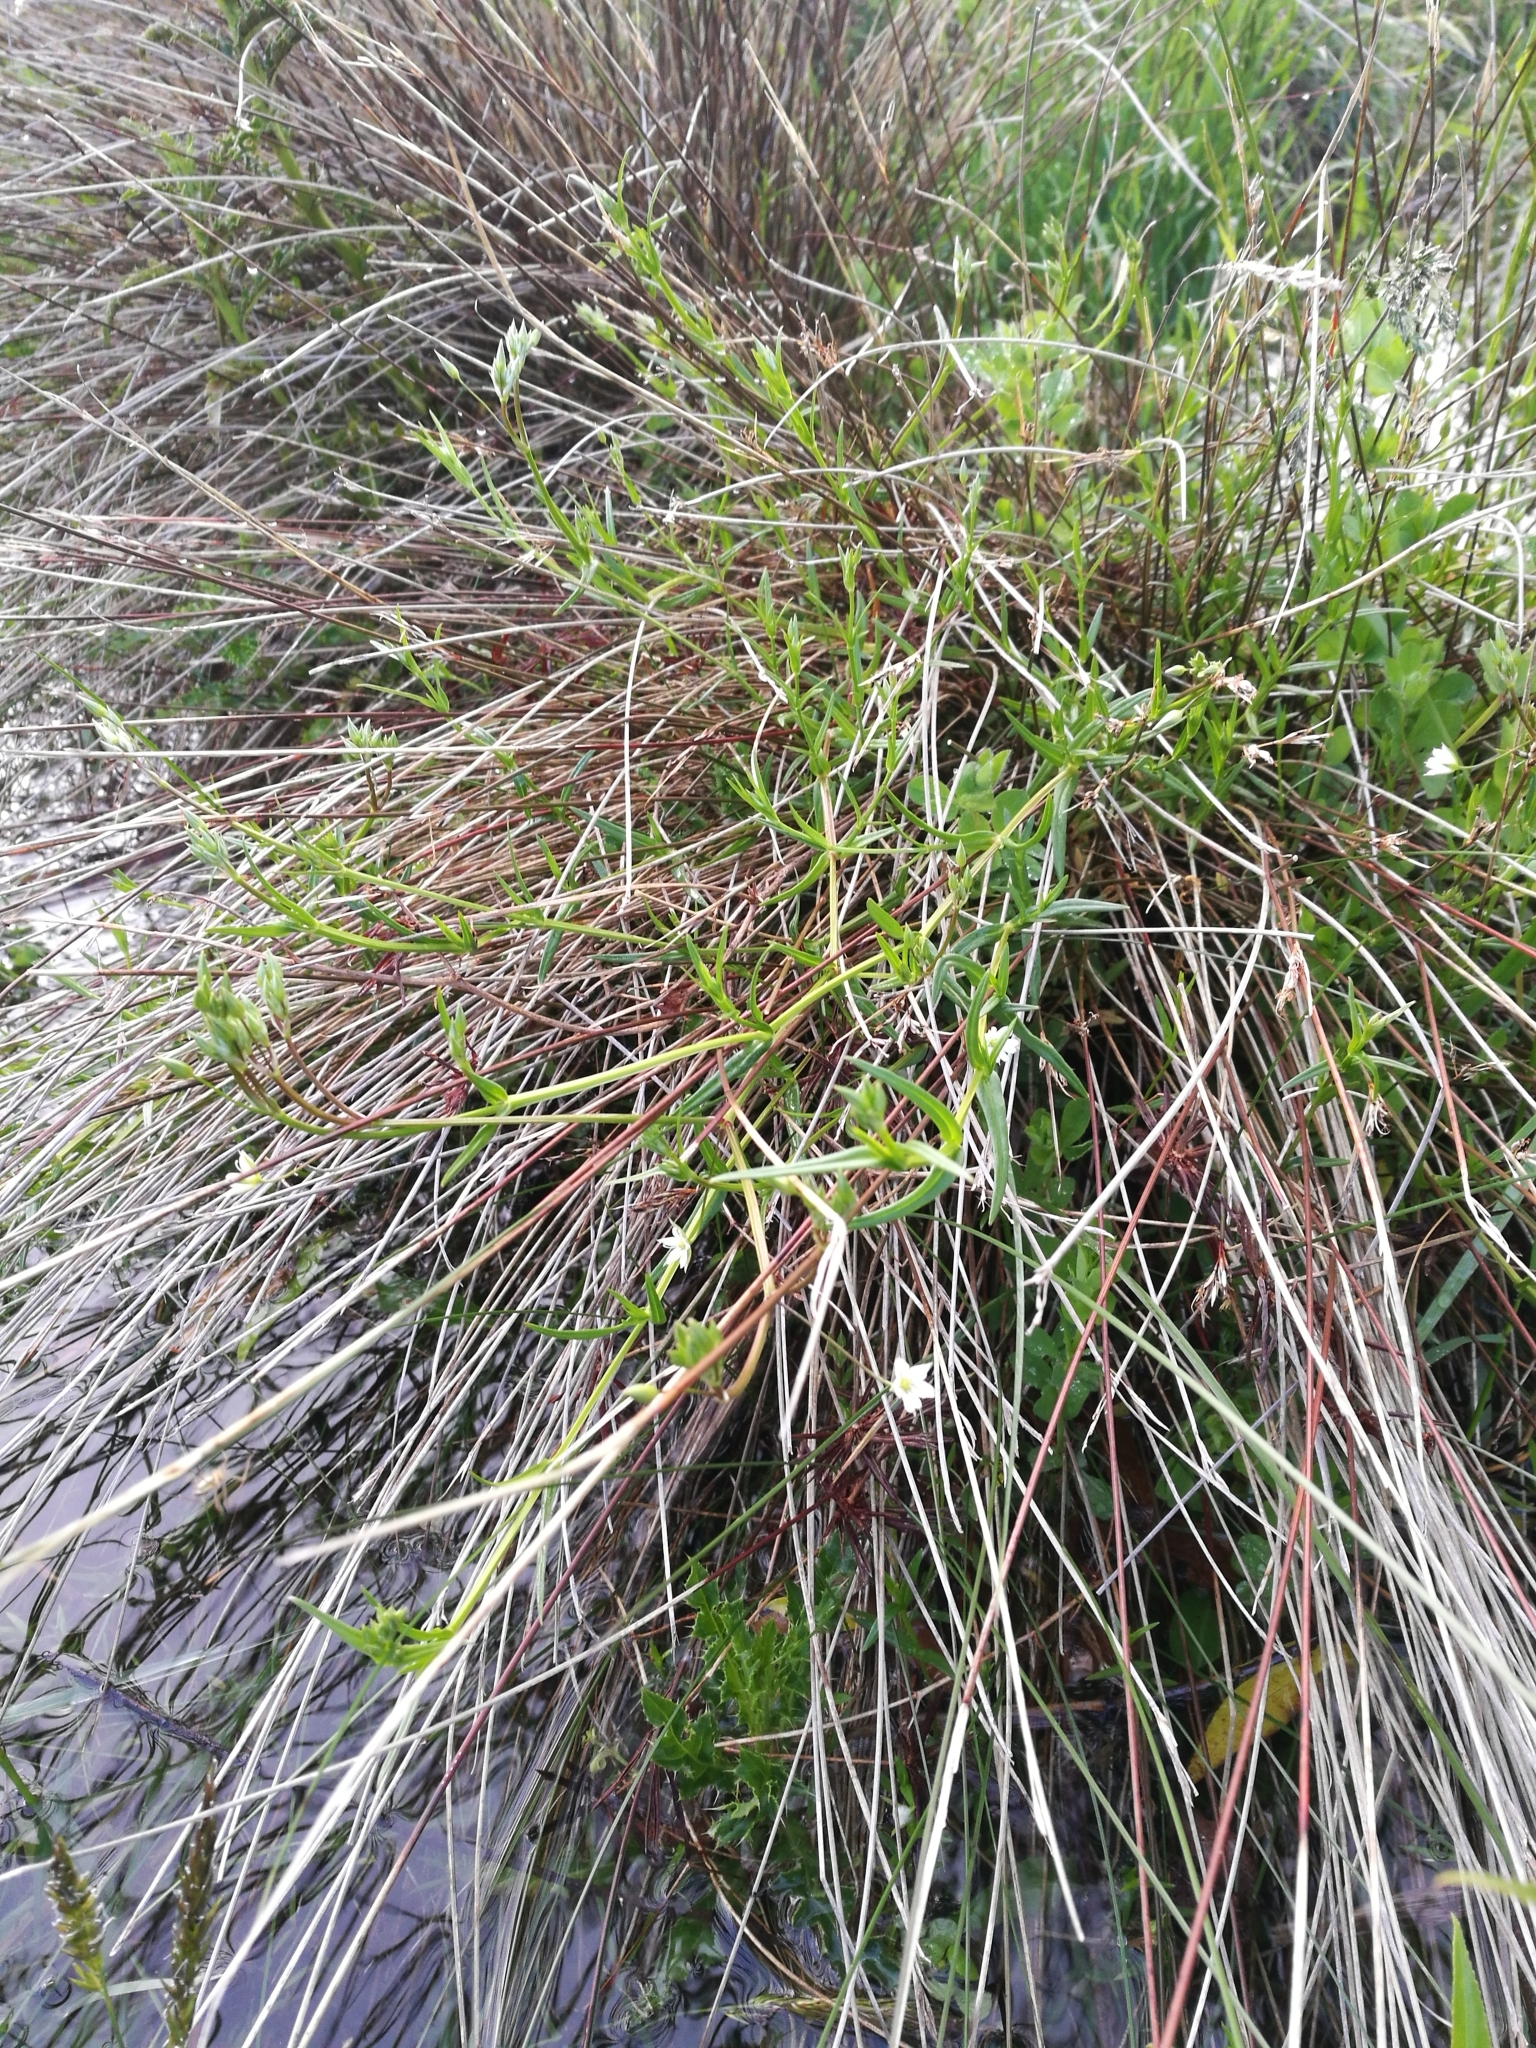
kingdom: Plantae
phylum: Tracheophyta
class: Magnoliopsida
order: Caryophyllales
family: Caryophyllaceae
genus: Stellaria
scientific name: Stellaria alsine
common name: Bog stitchwort
